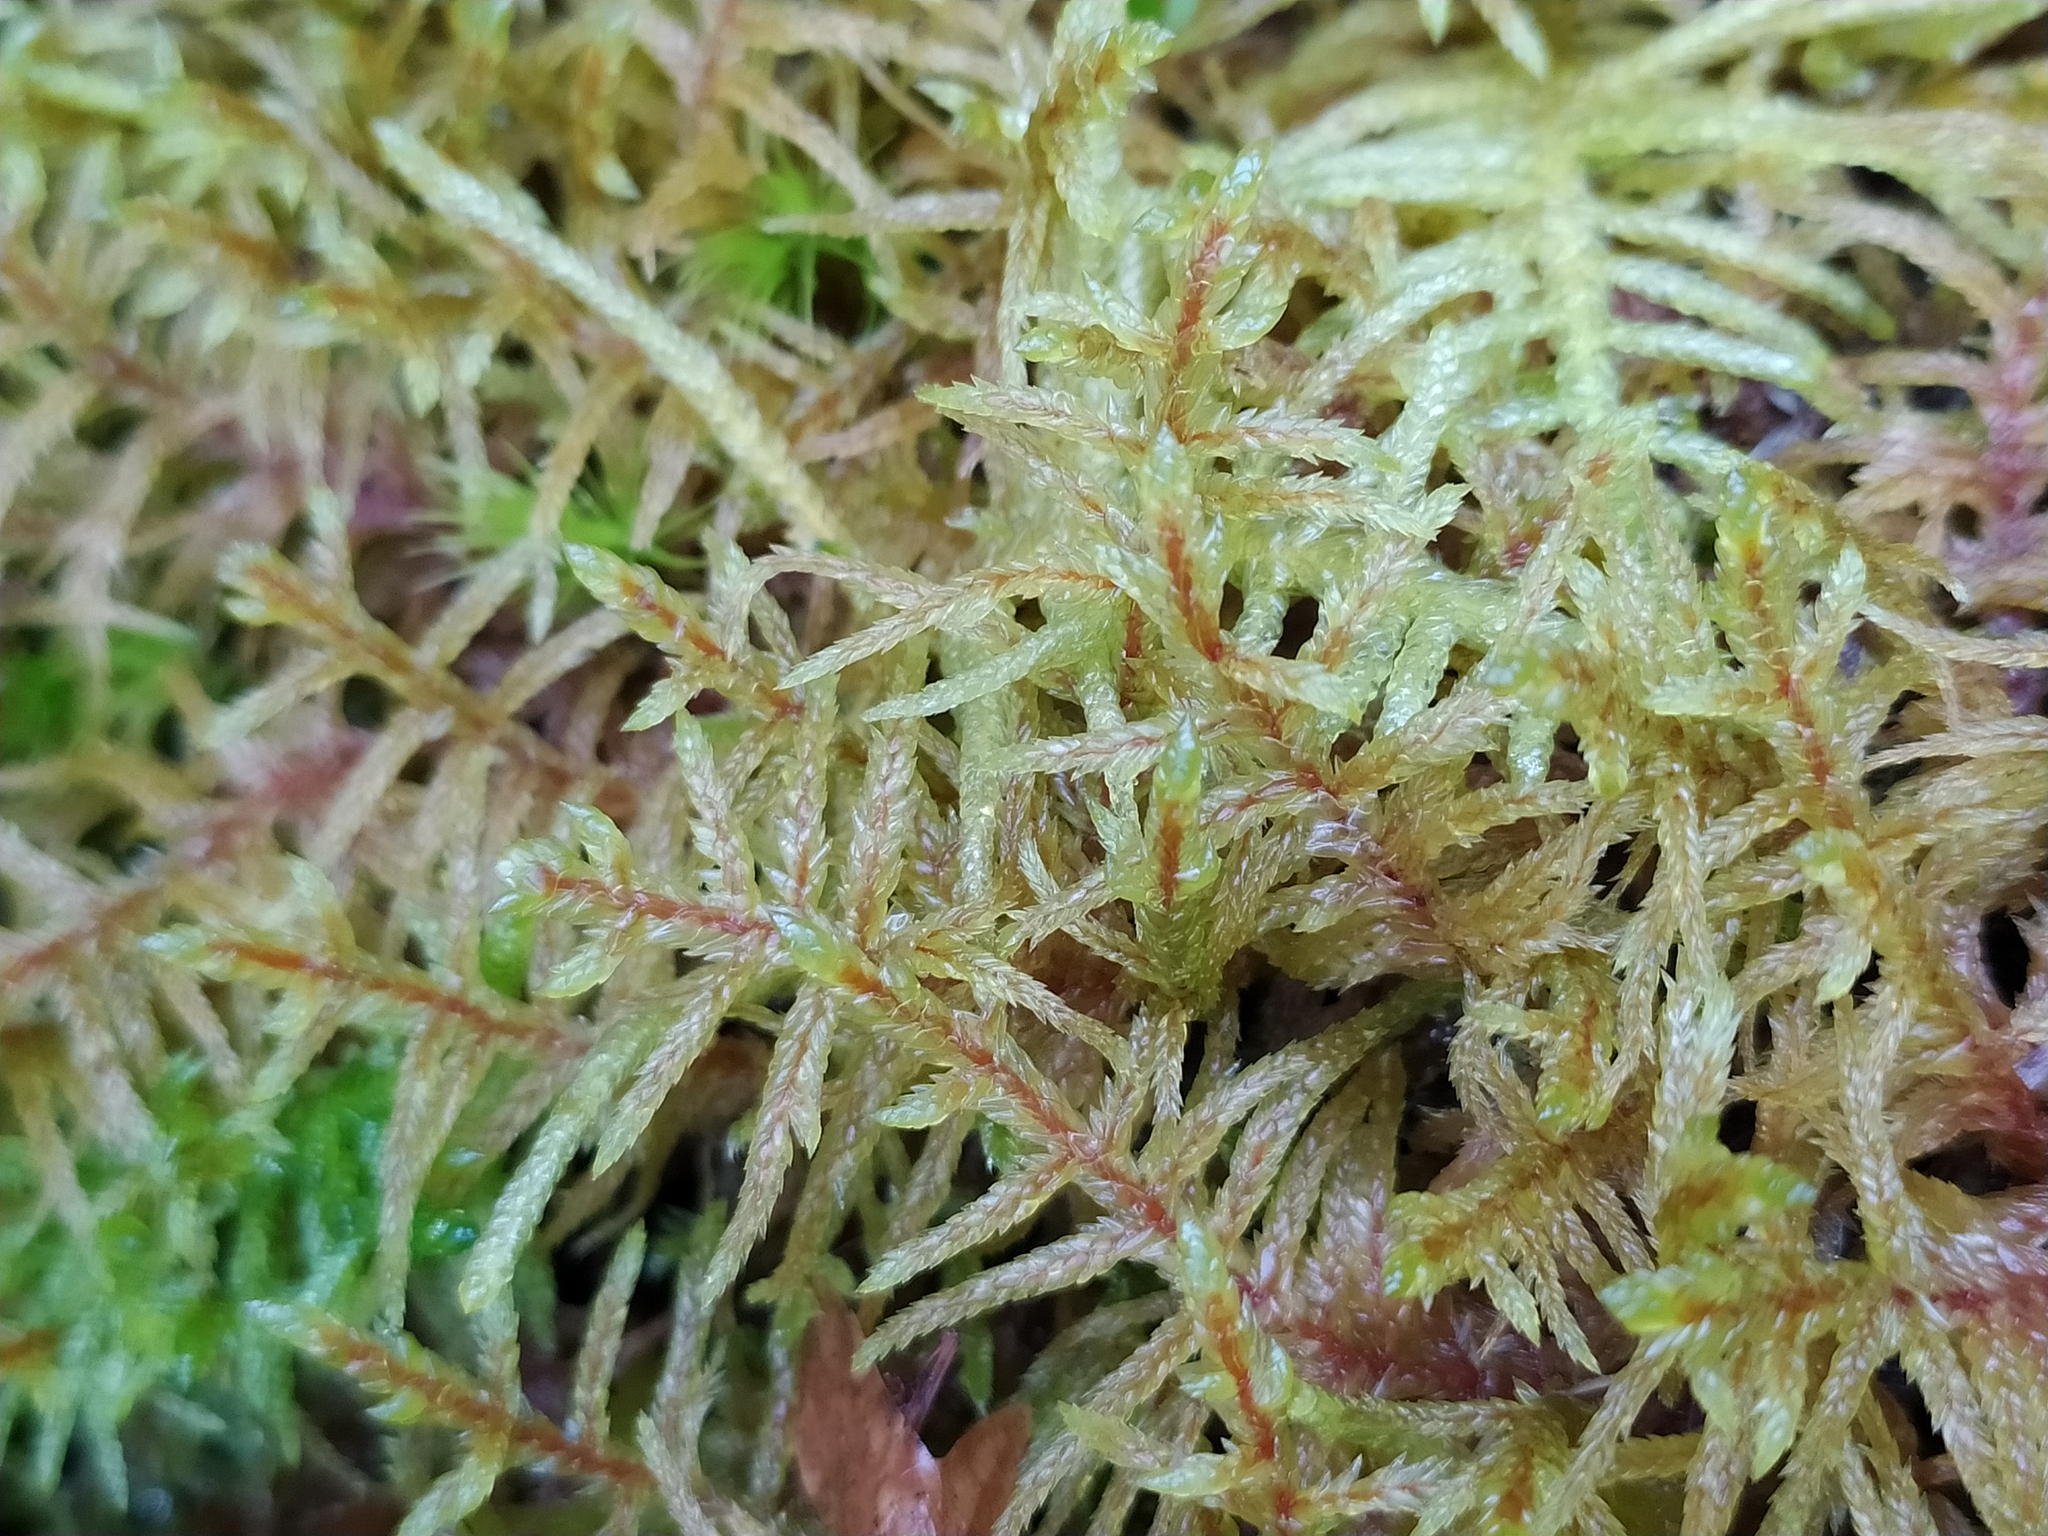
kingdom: Plantae
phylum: Bryophyta
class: Bryopsida
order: Hypnales
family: Hylocomiaceae
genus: Pleurozium
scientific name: Pleurozium schreberi
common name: Red-stemmed feather moss
